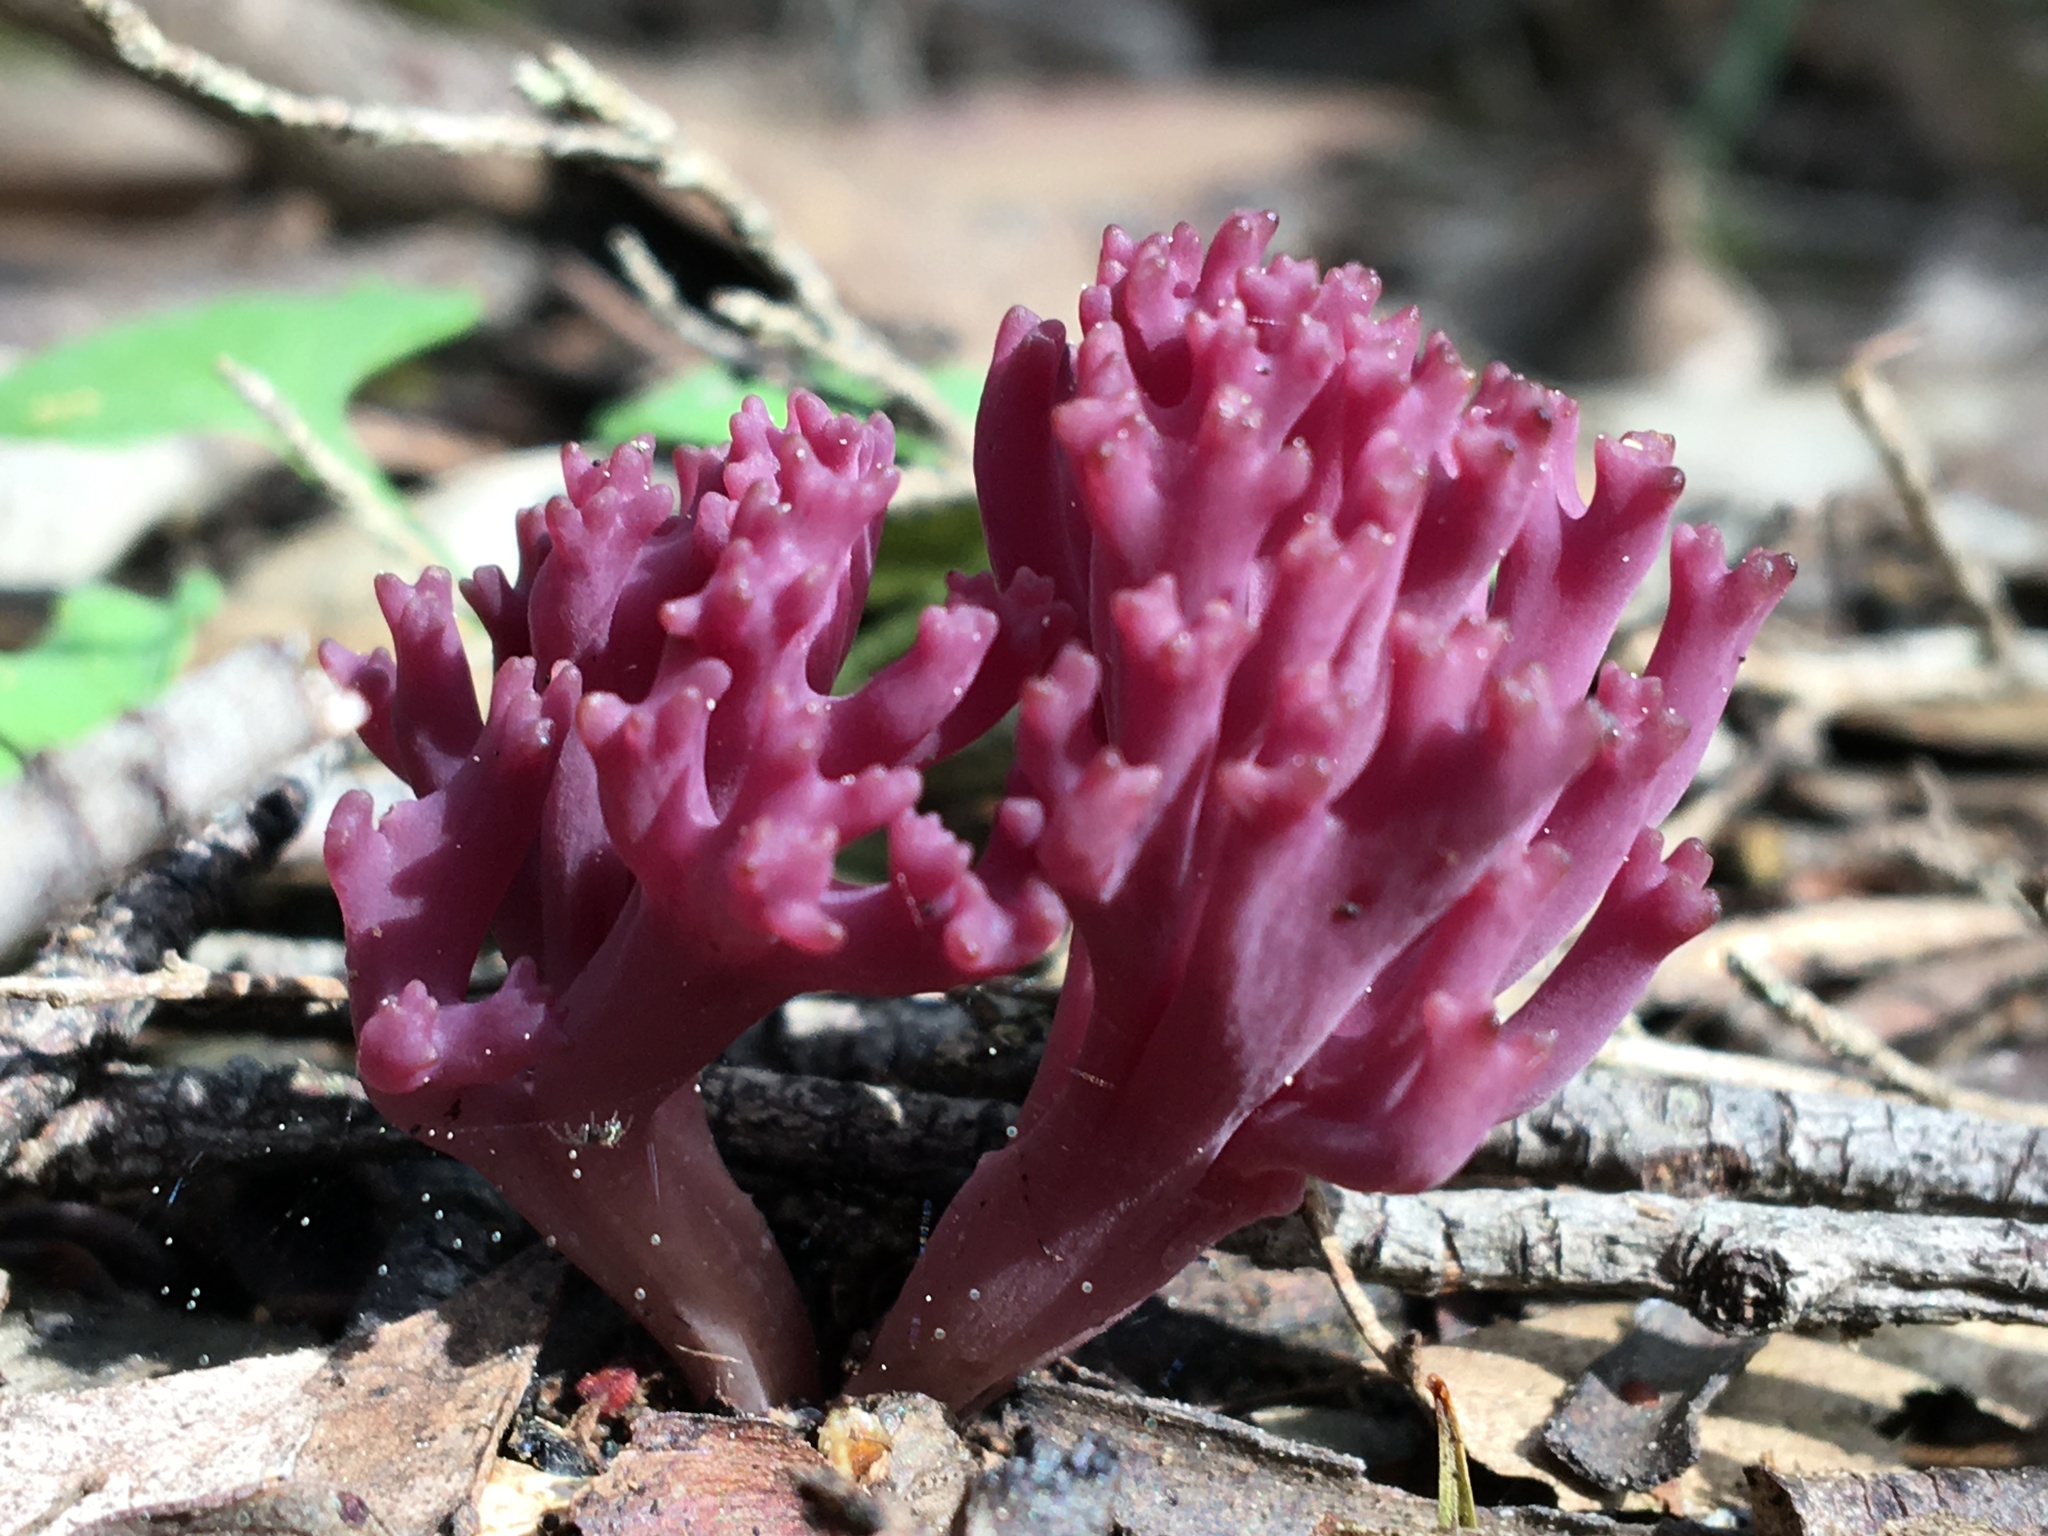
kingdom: Fungi
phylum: Basidiomycota
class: Agaricomycetes
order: Agaricales
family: Clavariaceae
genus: Clavaria
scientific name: Clavaria zollingeri
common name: Violet coral
